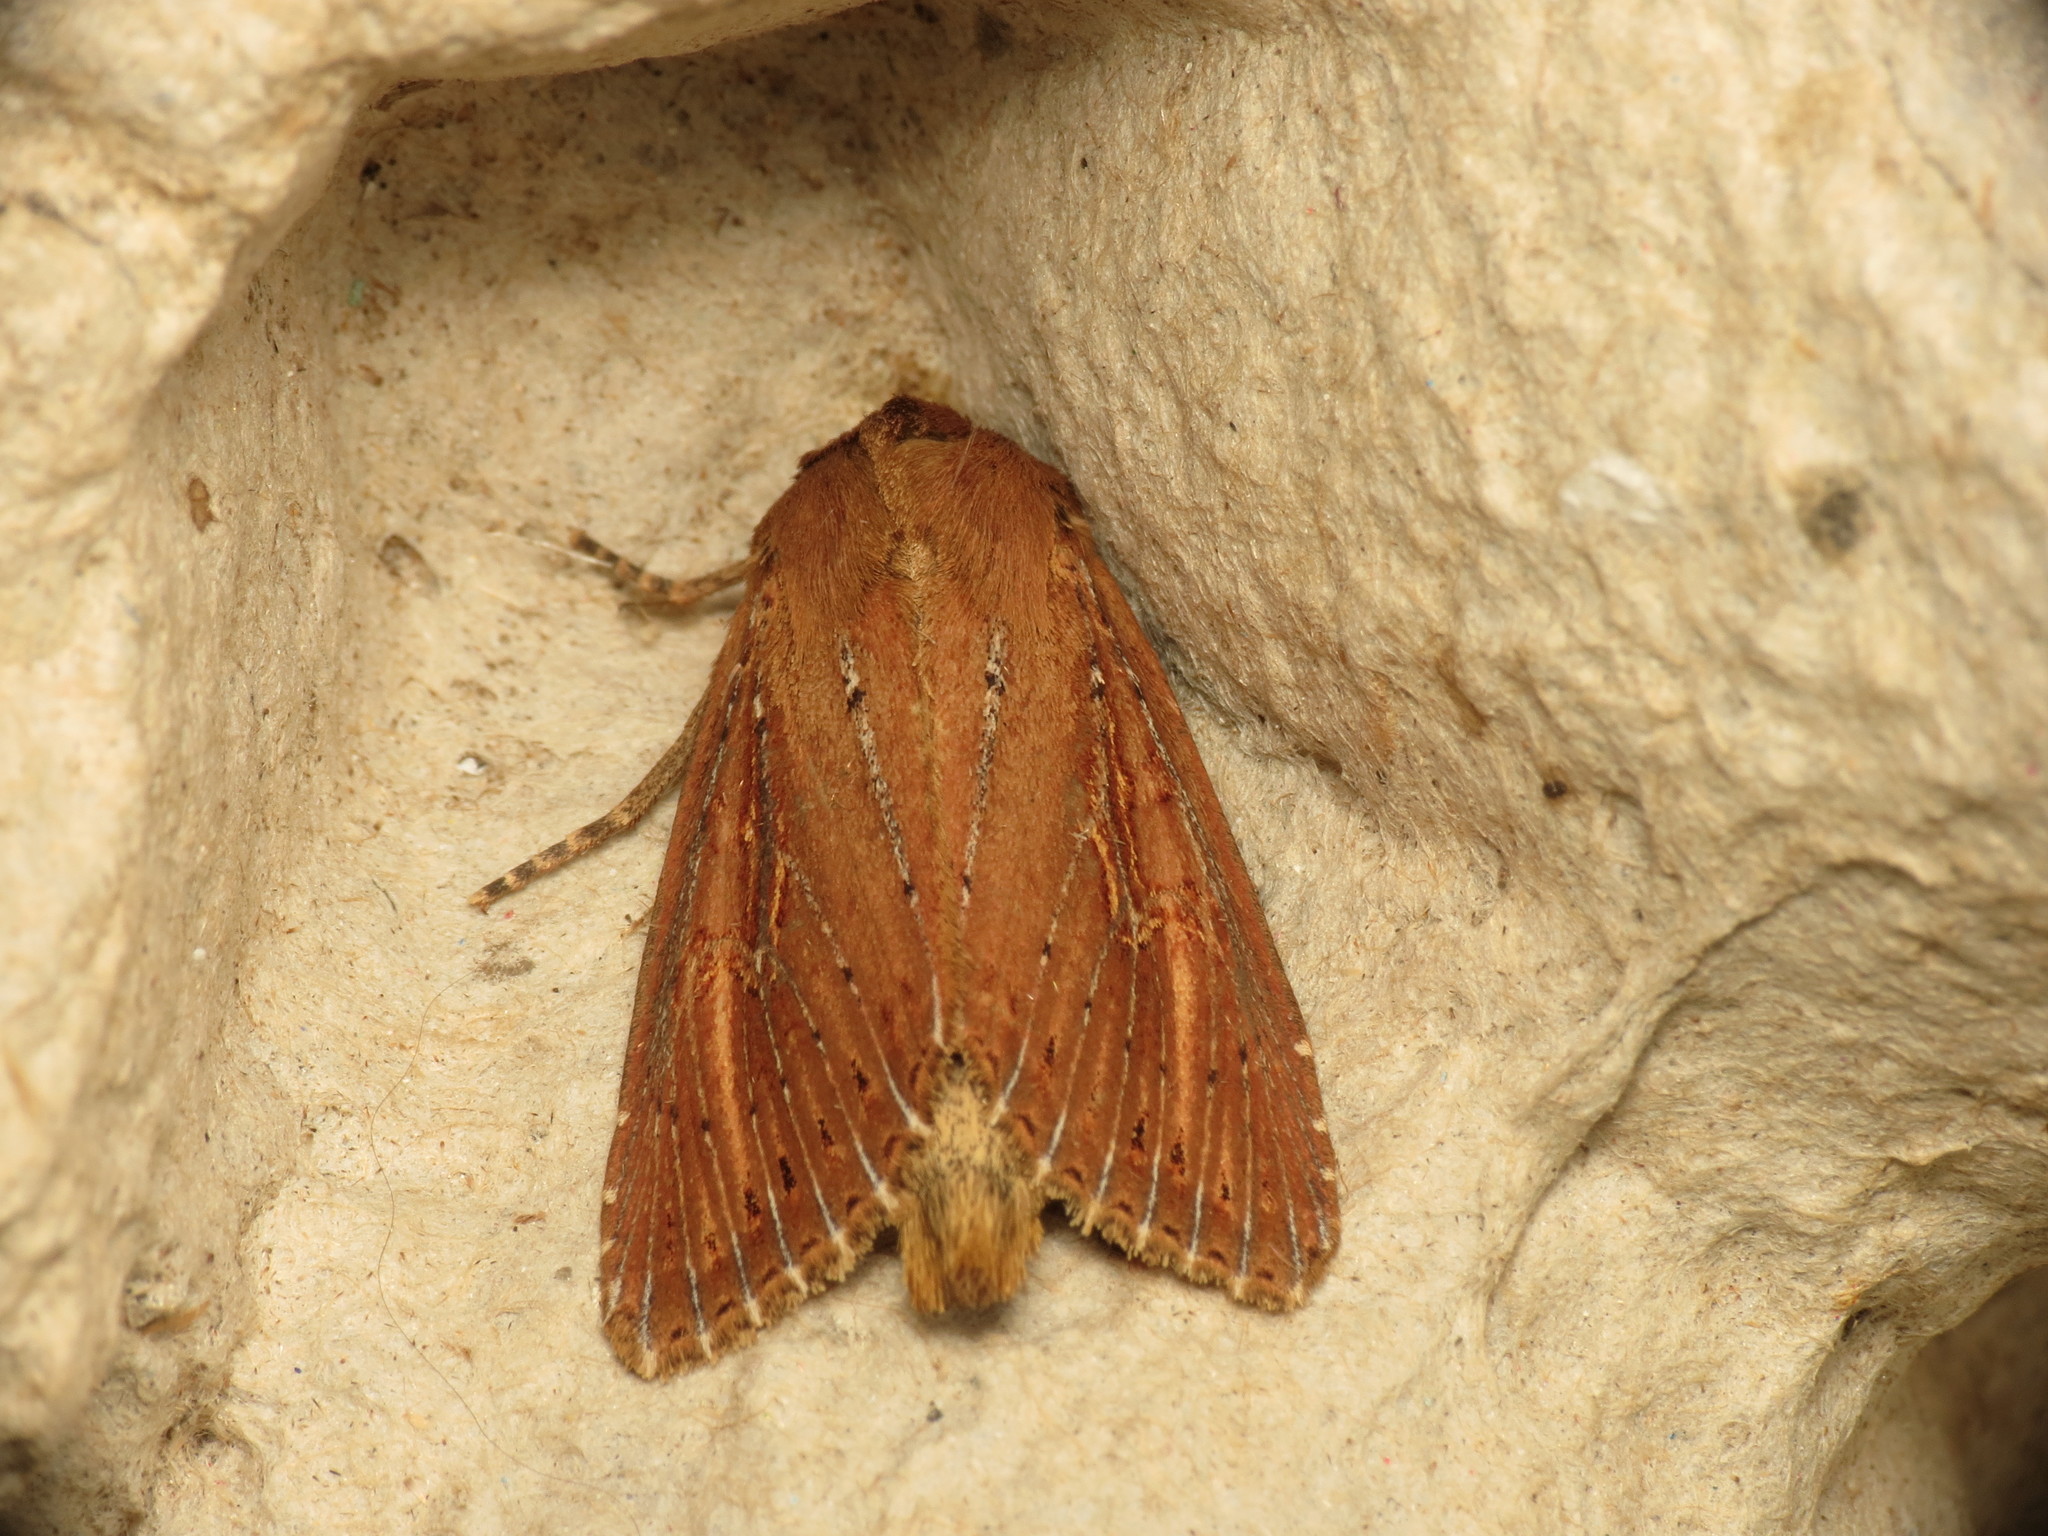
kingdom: Animalia
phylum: Arthropoda
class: Insecta
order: Lepidoptera
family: Noctuidae
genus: Nonagria
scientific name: Nonagria typhae
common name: Bulrush wainscot
